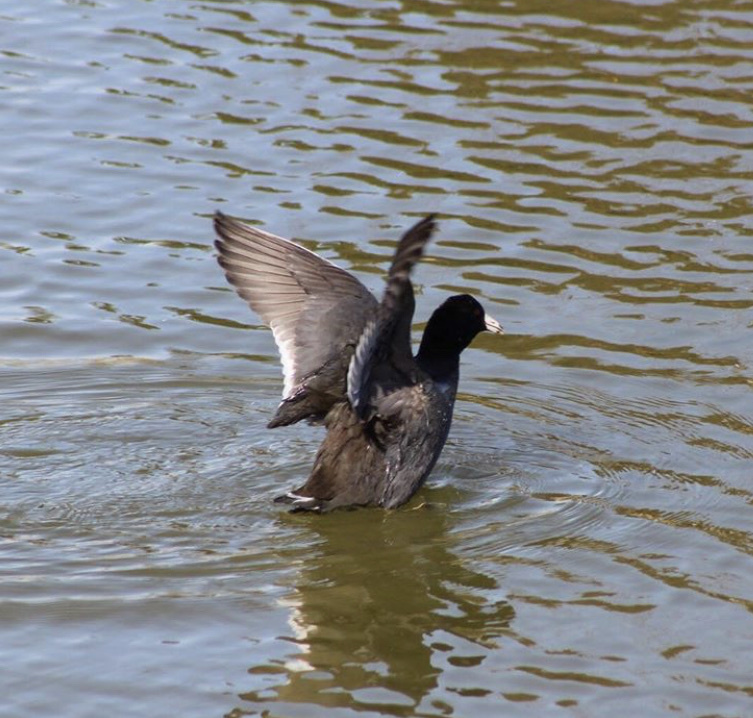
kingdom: Animalia
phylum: Chordata
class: Aves
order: Gruiformes
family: Rallidae
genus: Fulica
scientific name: Fulica americana
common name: American coot
